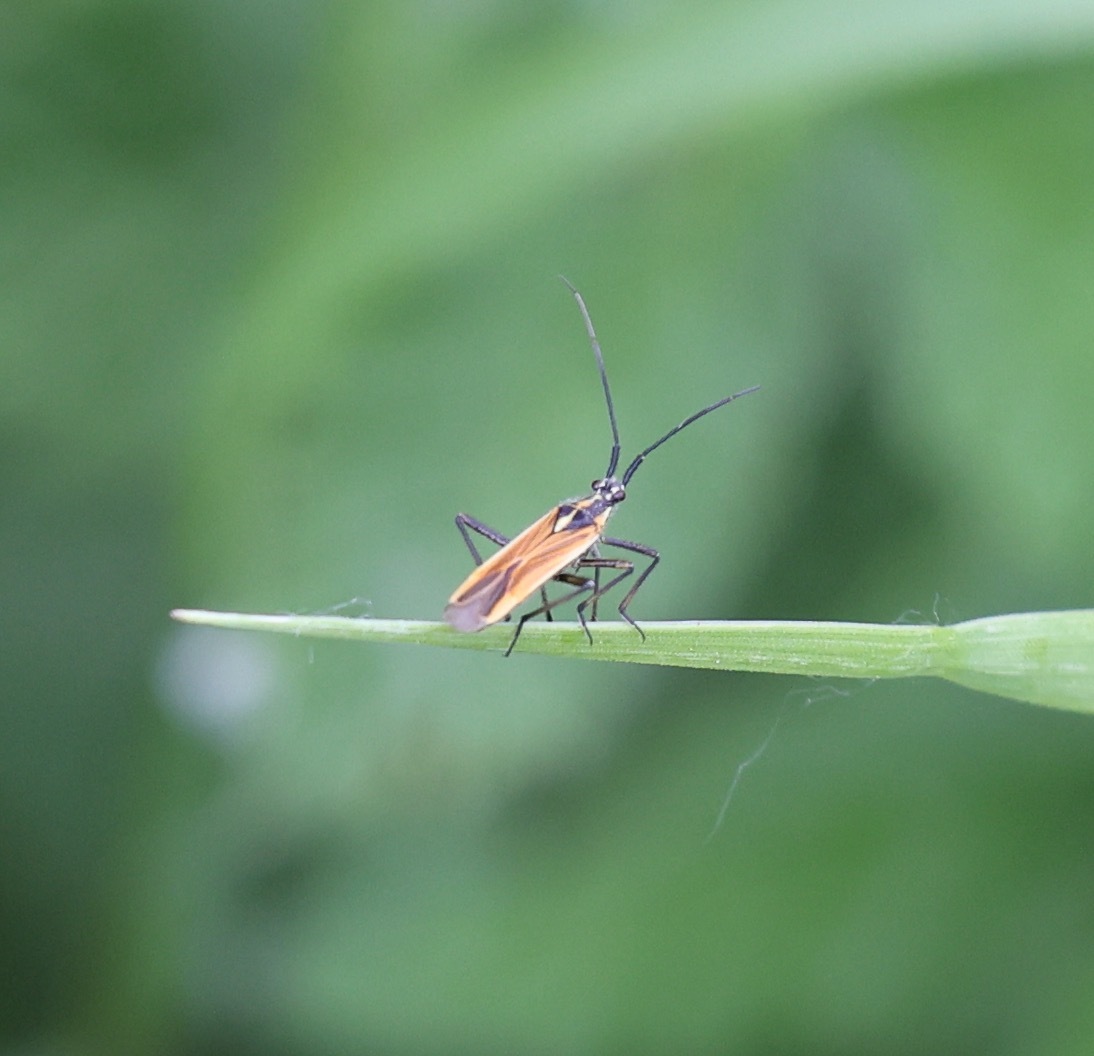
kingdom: Animalia
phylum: Arthropoda
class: Insecta
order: Hemiptera
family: Miridae
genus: Leptopterna
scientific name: Leptopterna dolabrata
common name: Meadow plant bug
